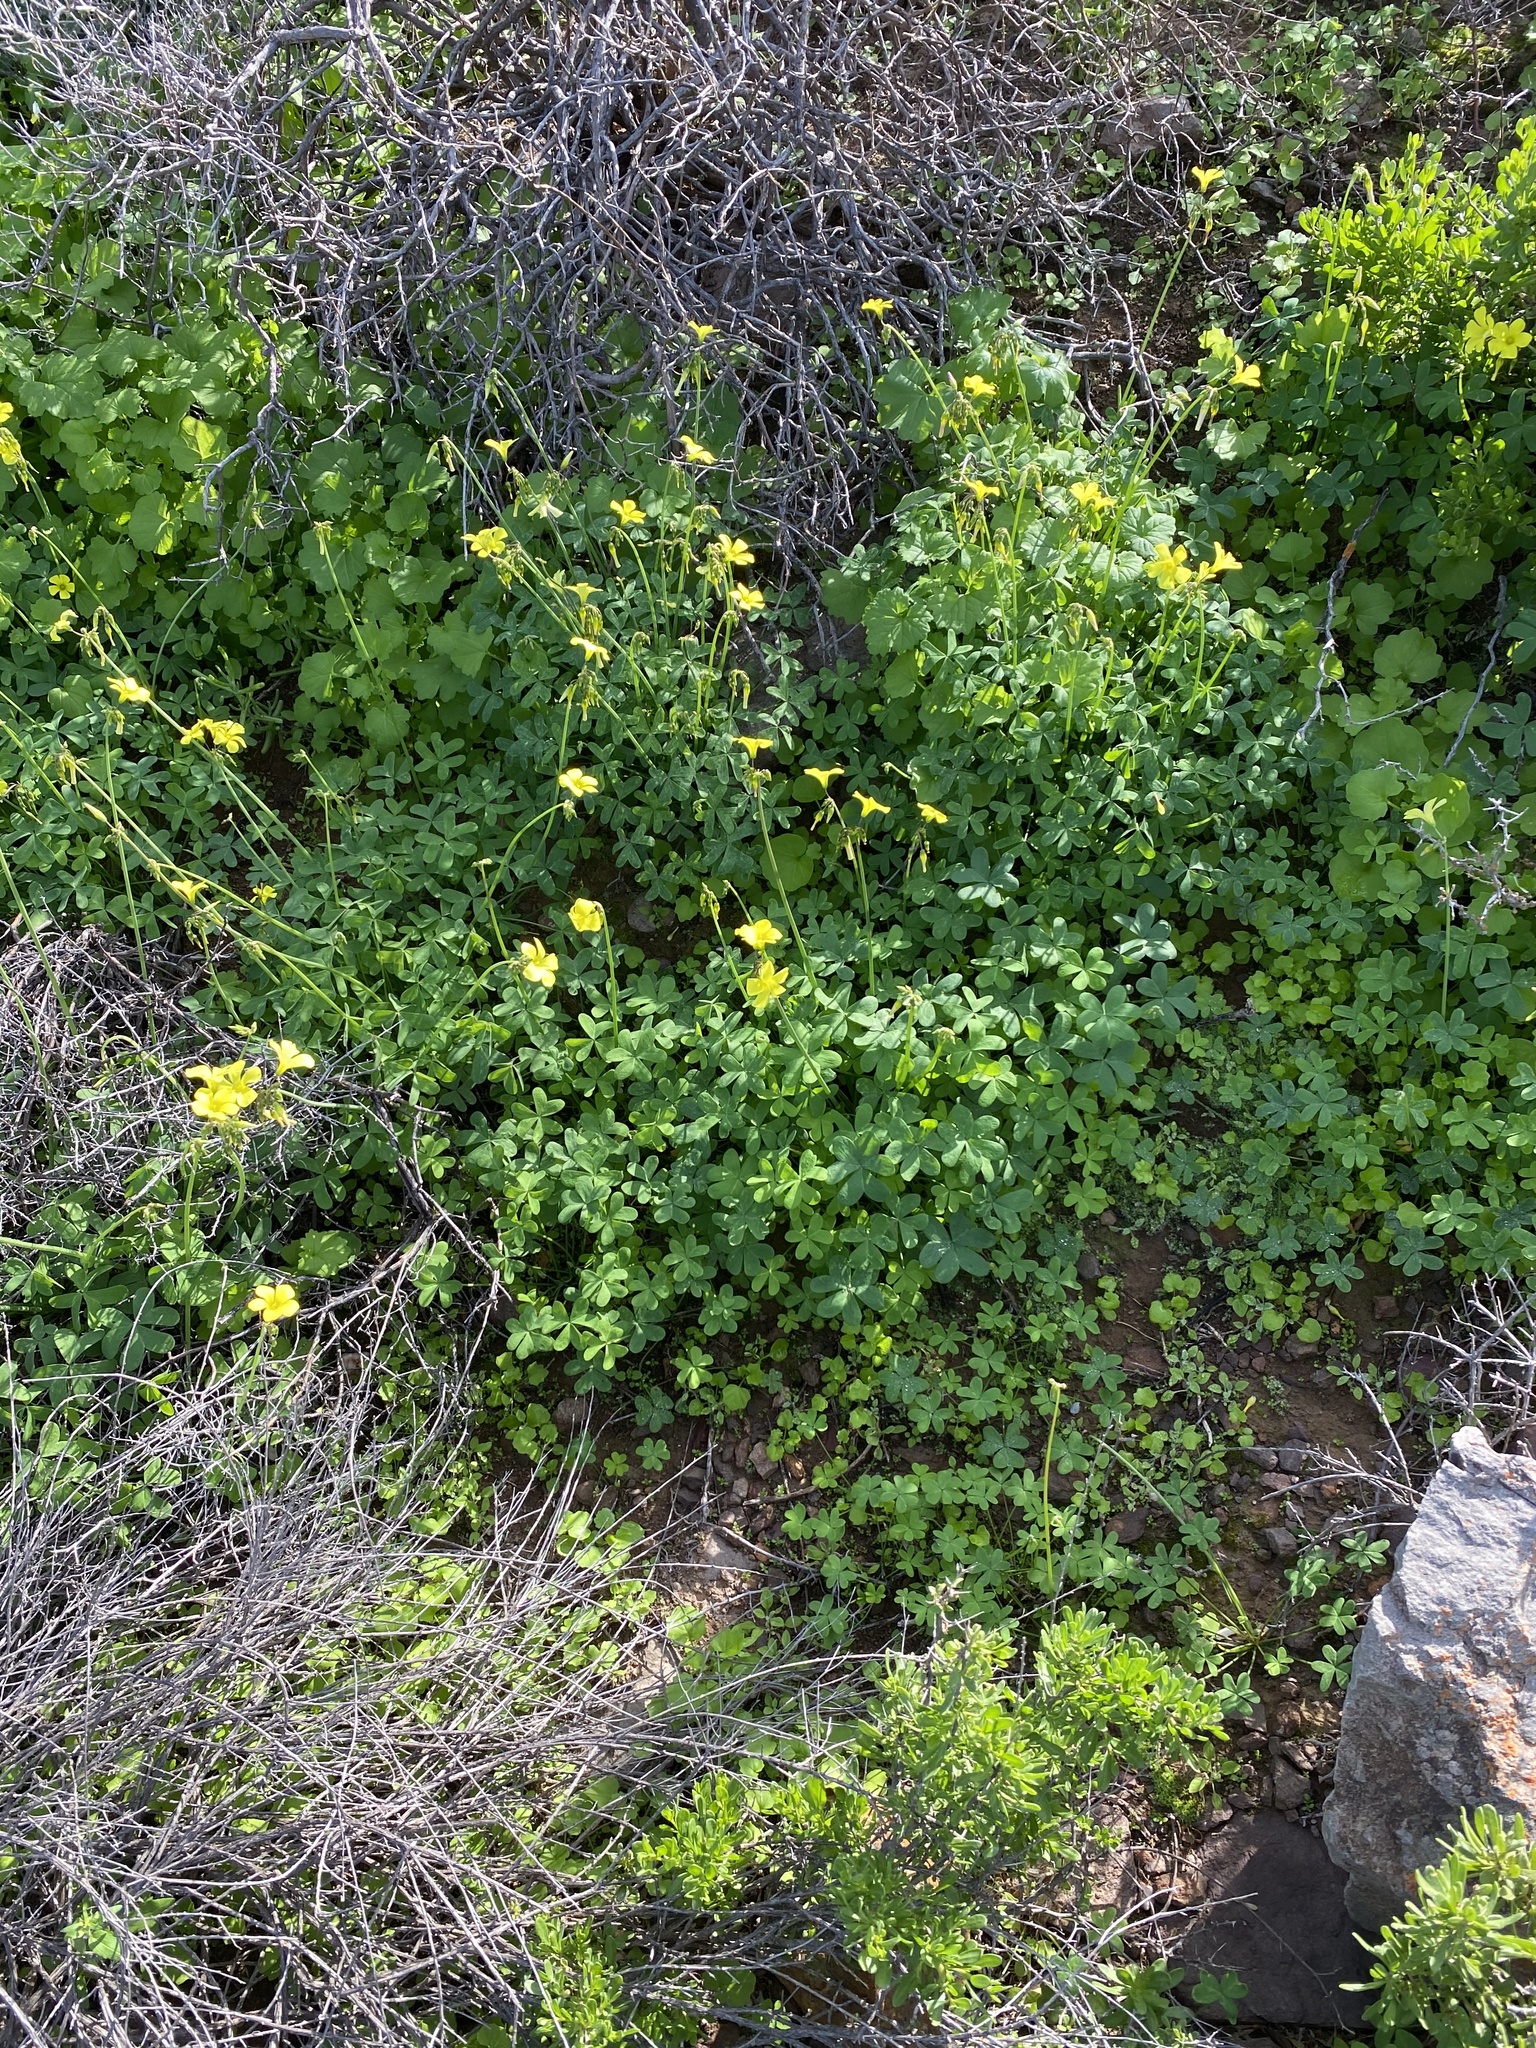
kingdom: Plantae
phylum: Tracheophyta
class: Magnoliopsida
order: Oxalidales
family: Oxalidaceae
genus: Oxalis
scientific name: Oxalis pes-caprae
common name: Bermuda-buttercup
